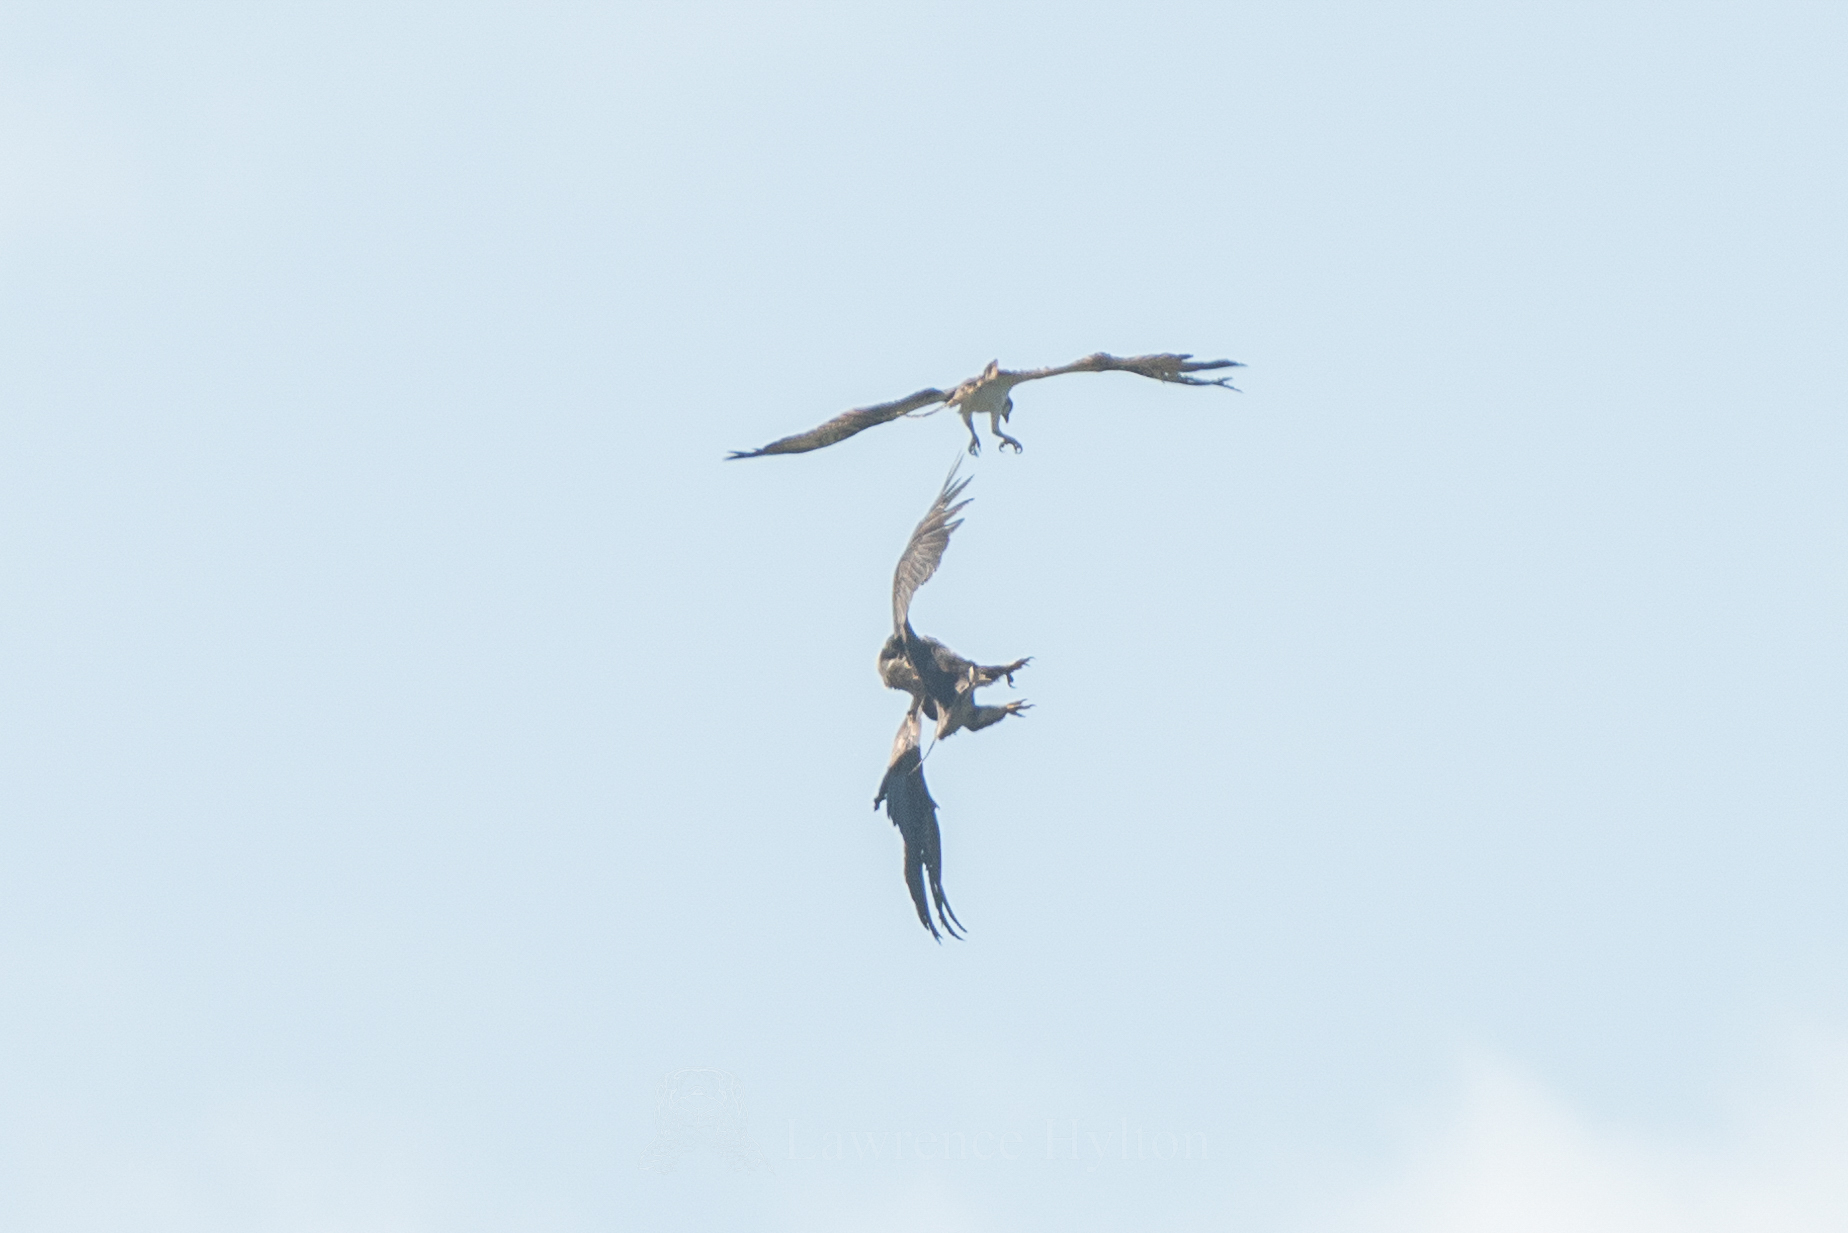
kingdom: Animalia
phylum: Chordata
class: Aves
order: Accipitriformes
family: Accipitridae
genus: Aquila
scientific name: Aquila heliaca
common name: Eastern imperial eagle
